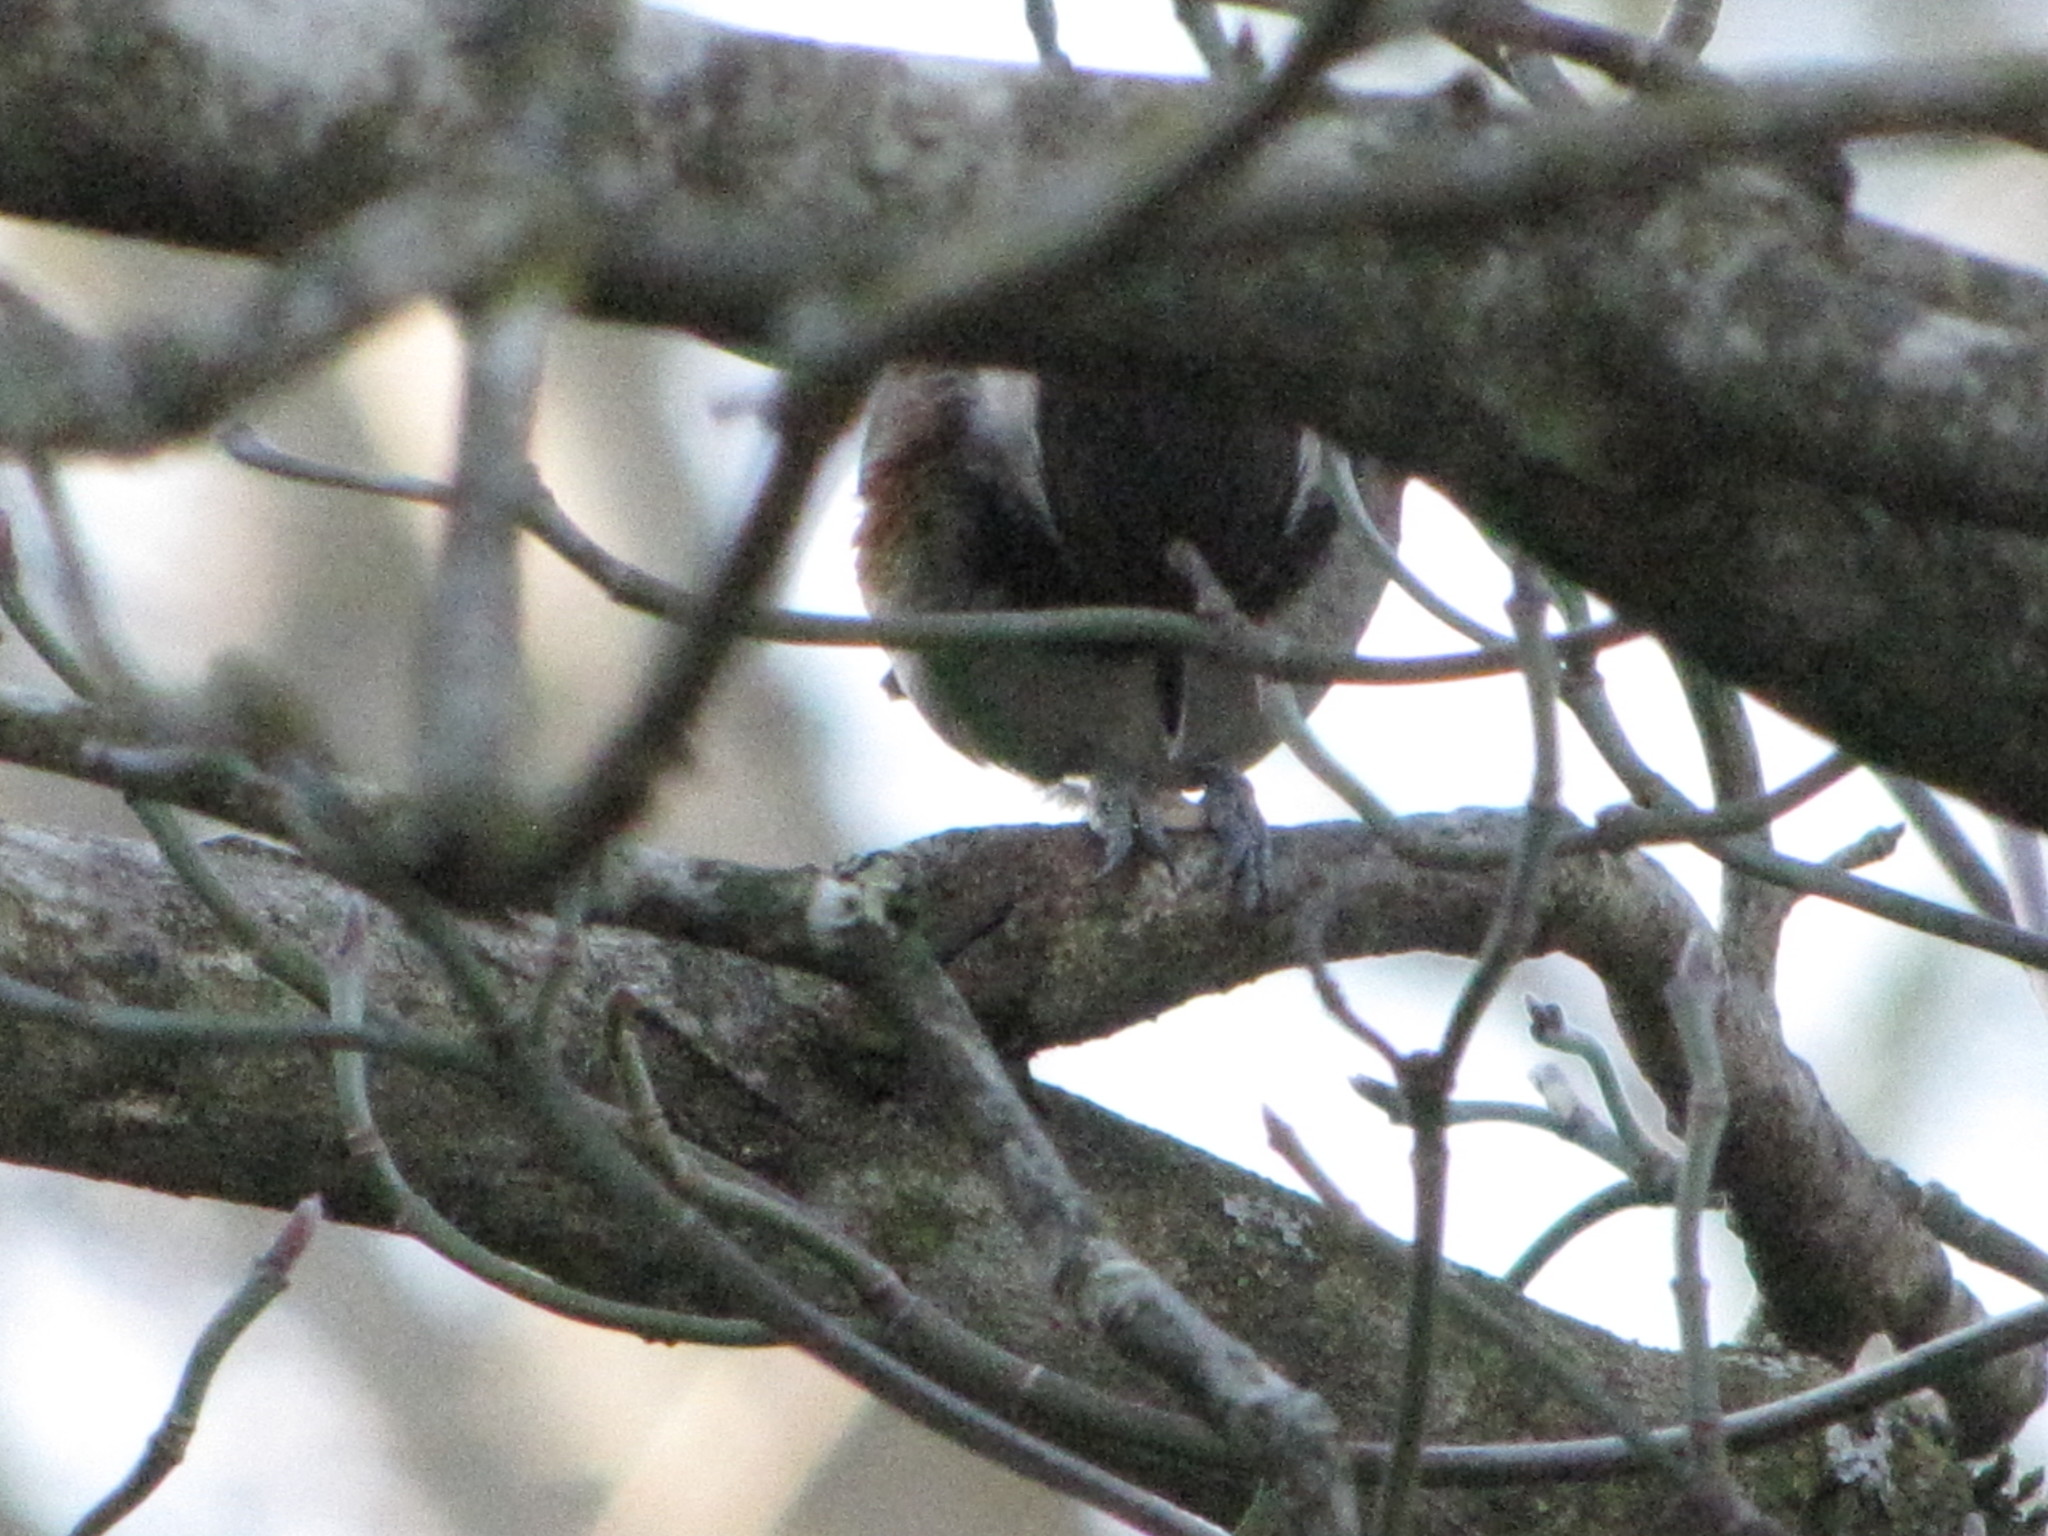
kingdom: Animalia
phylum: Chordata
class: Aves
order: Passeriformes
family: Paridae
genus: Poecile
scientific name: Poecile rufescens
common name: Chestnut-backed chickadee
